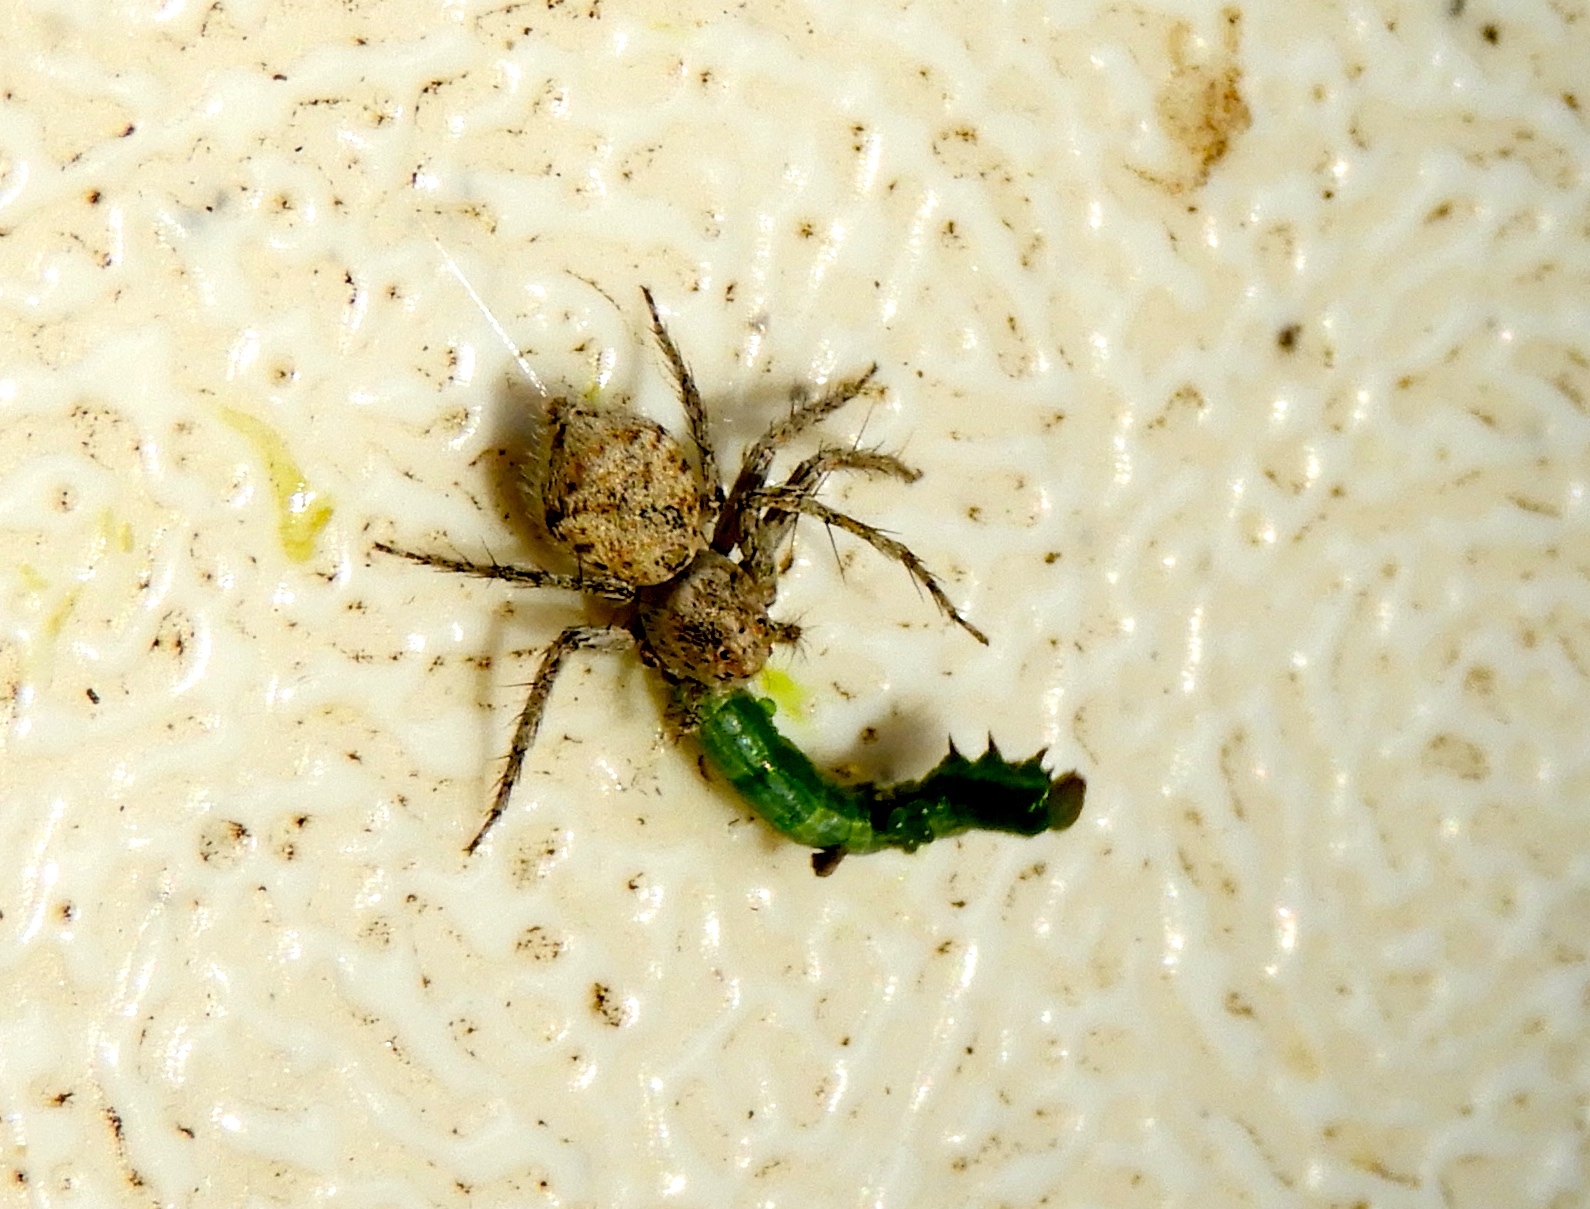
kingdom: Animalia
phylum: Arthropoda
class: Arachnida
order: Araneae
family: Oxyopidae
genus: Hamataliwa
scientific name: Hamataliwa
